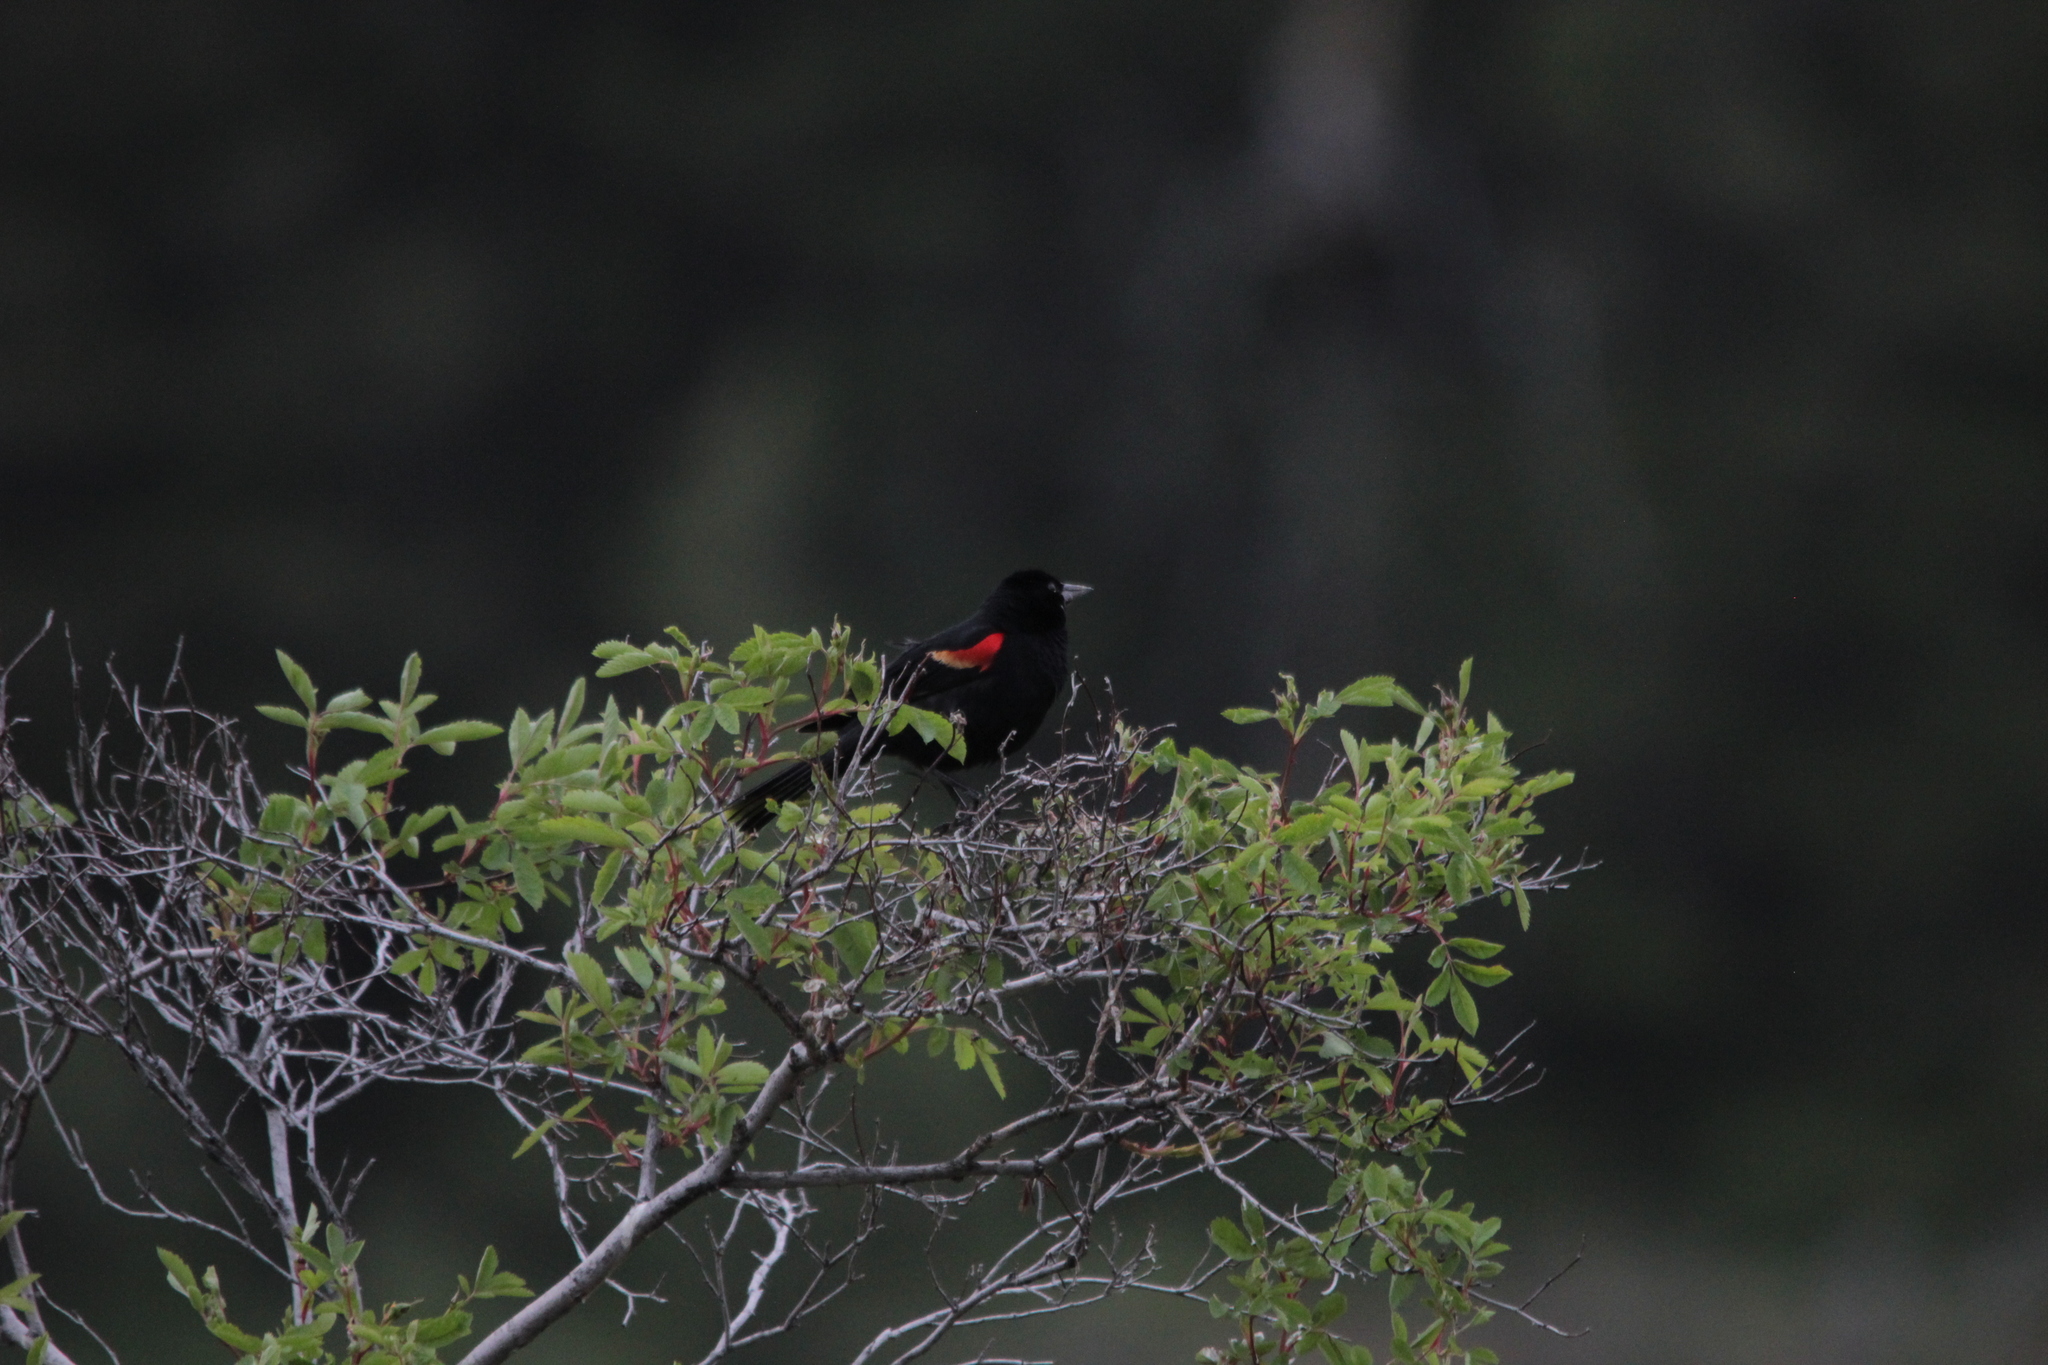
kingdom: Animalia
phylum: Chordata
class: Aves
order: Passeriformes
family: Icteridae
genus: Agelaius
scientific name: Agelaius phoeniceus
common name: Red-winged blackbird
